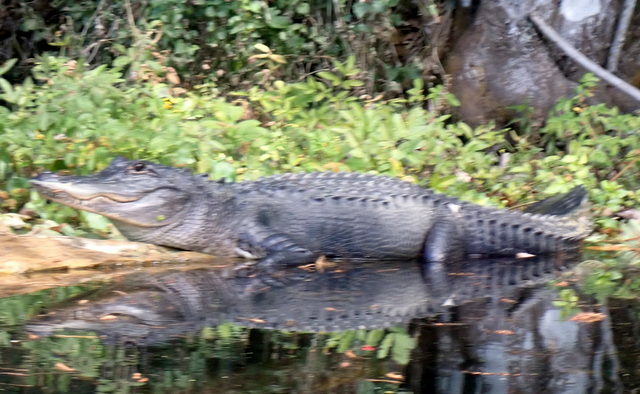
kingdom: Animalia
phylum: Chordata
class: Crocodylia
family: Alligatoridae
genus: Alligator
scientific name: Alligator mississippiensis
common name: American alligator
